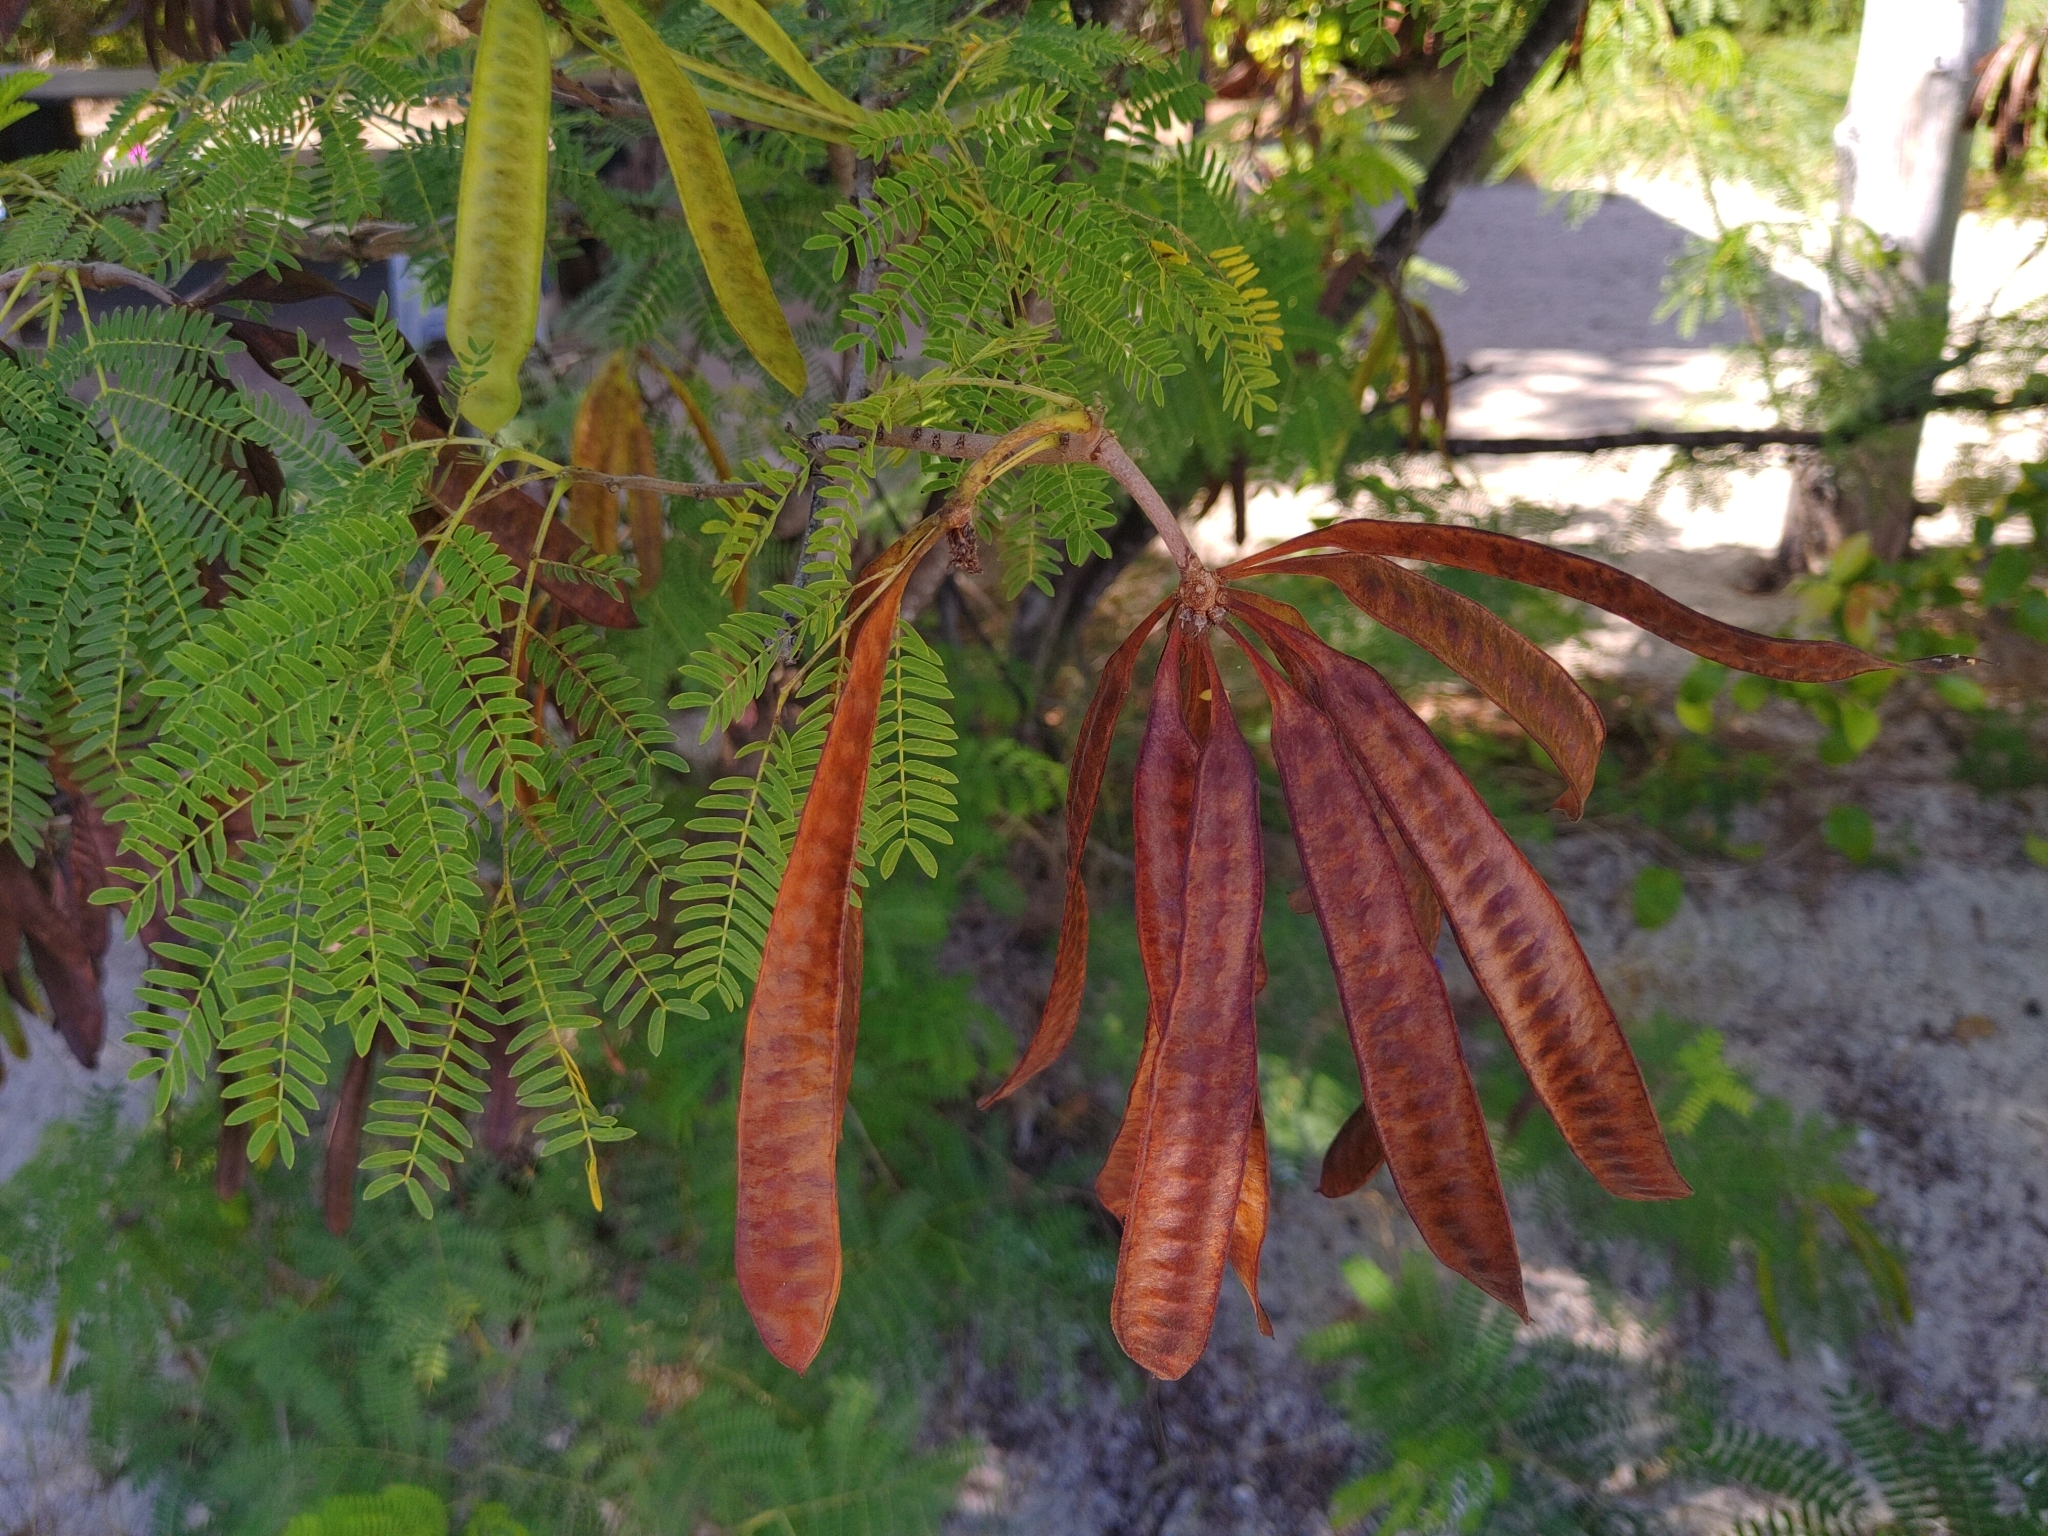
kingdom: Plantae
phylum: Tracheophyta
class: Magnoliopsida
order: Fabales
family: Fabaceae
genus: Leucaena
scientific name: Leucaena leucocephala
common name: White leadtree
